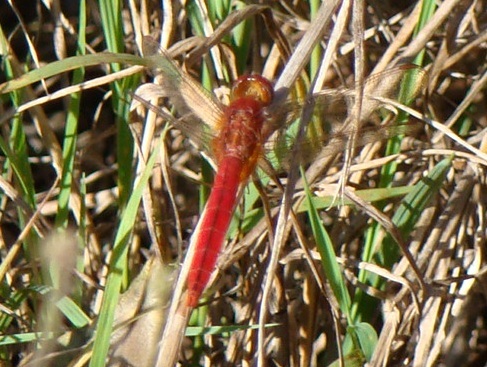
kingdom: Animalia
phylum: Arthropoda
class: Insecta
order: Odonata
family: Libellulidae
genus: Crocothemis
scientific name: Crocothemis servilia
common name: Scarlet skimmer
